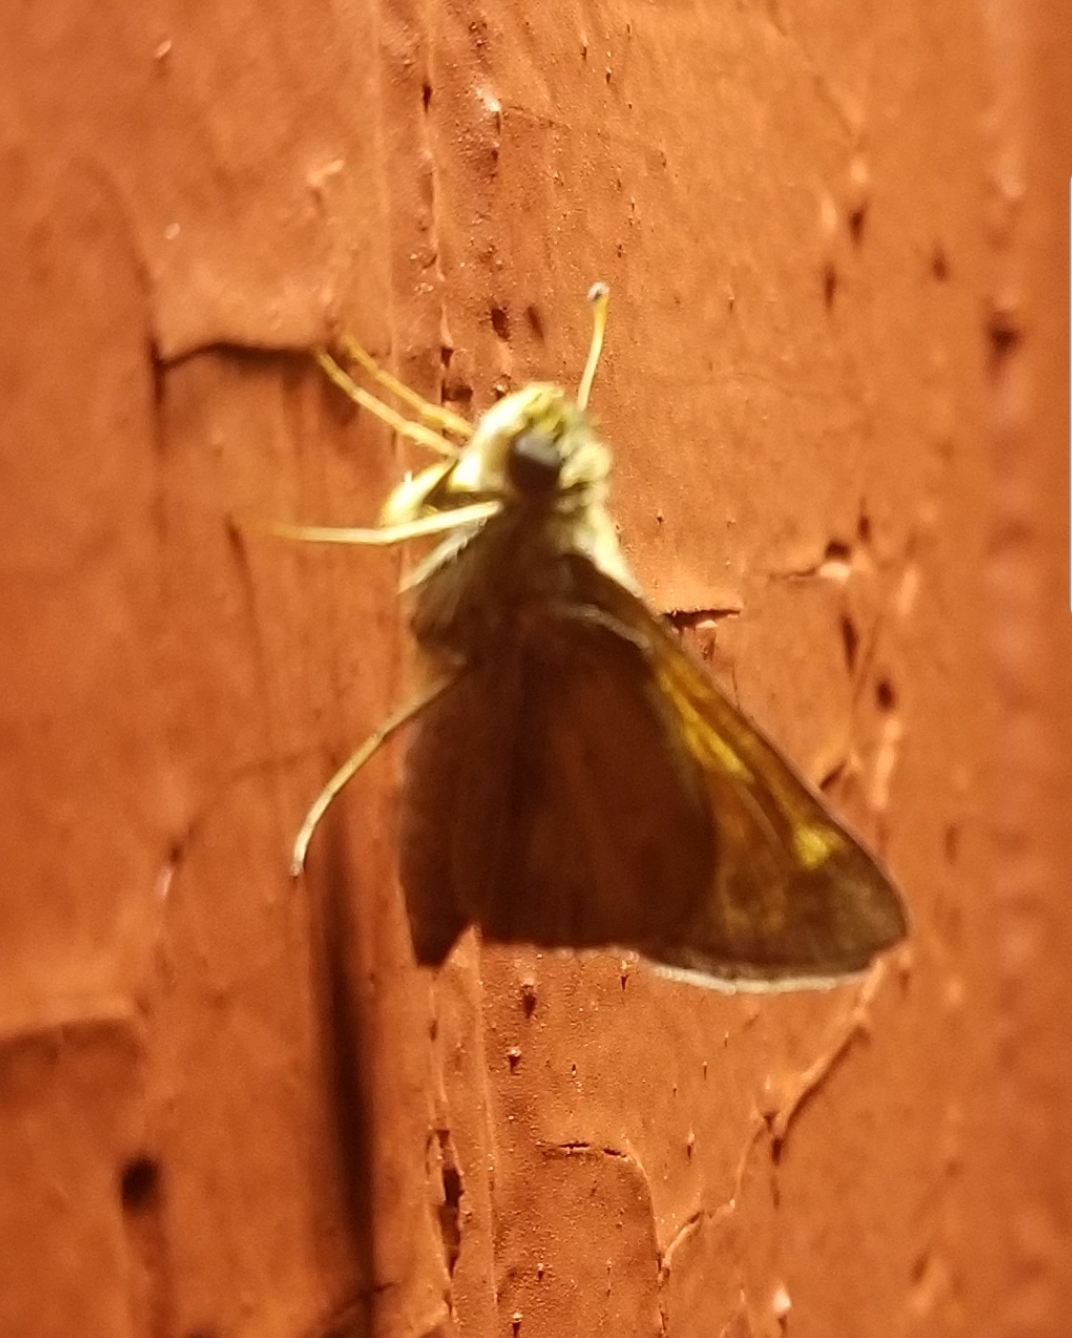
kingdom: Animalia
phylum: Arthropoda
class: Insecta
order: Lepidoptera
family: Hesperiidae
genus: Atalopedes
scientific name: Atalopedes
